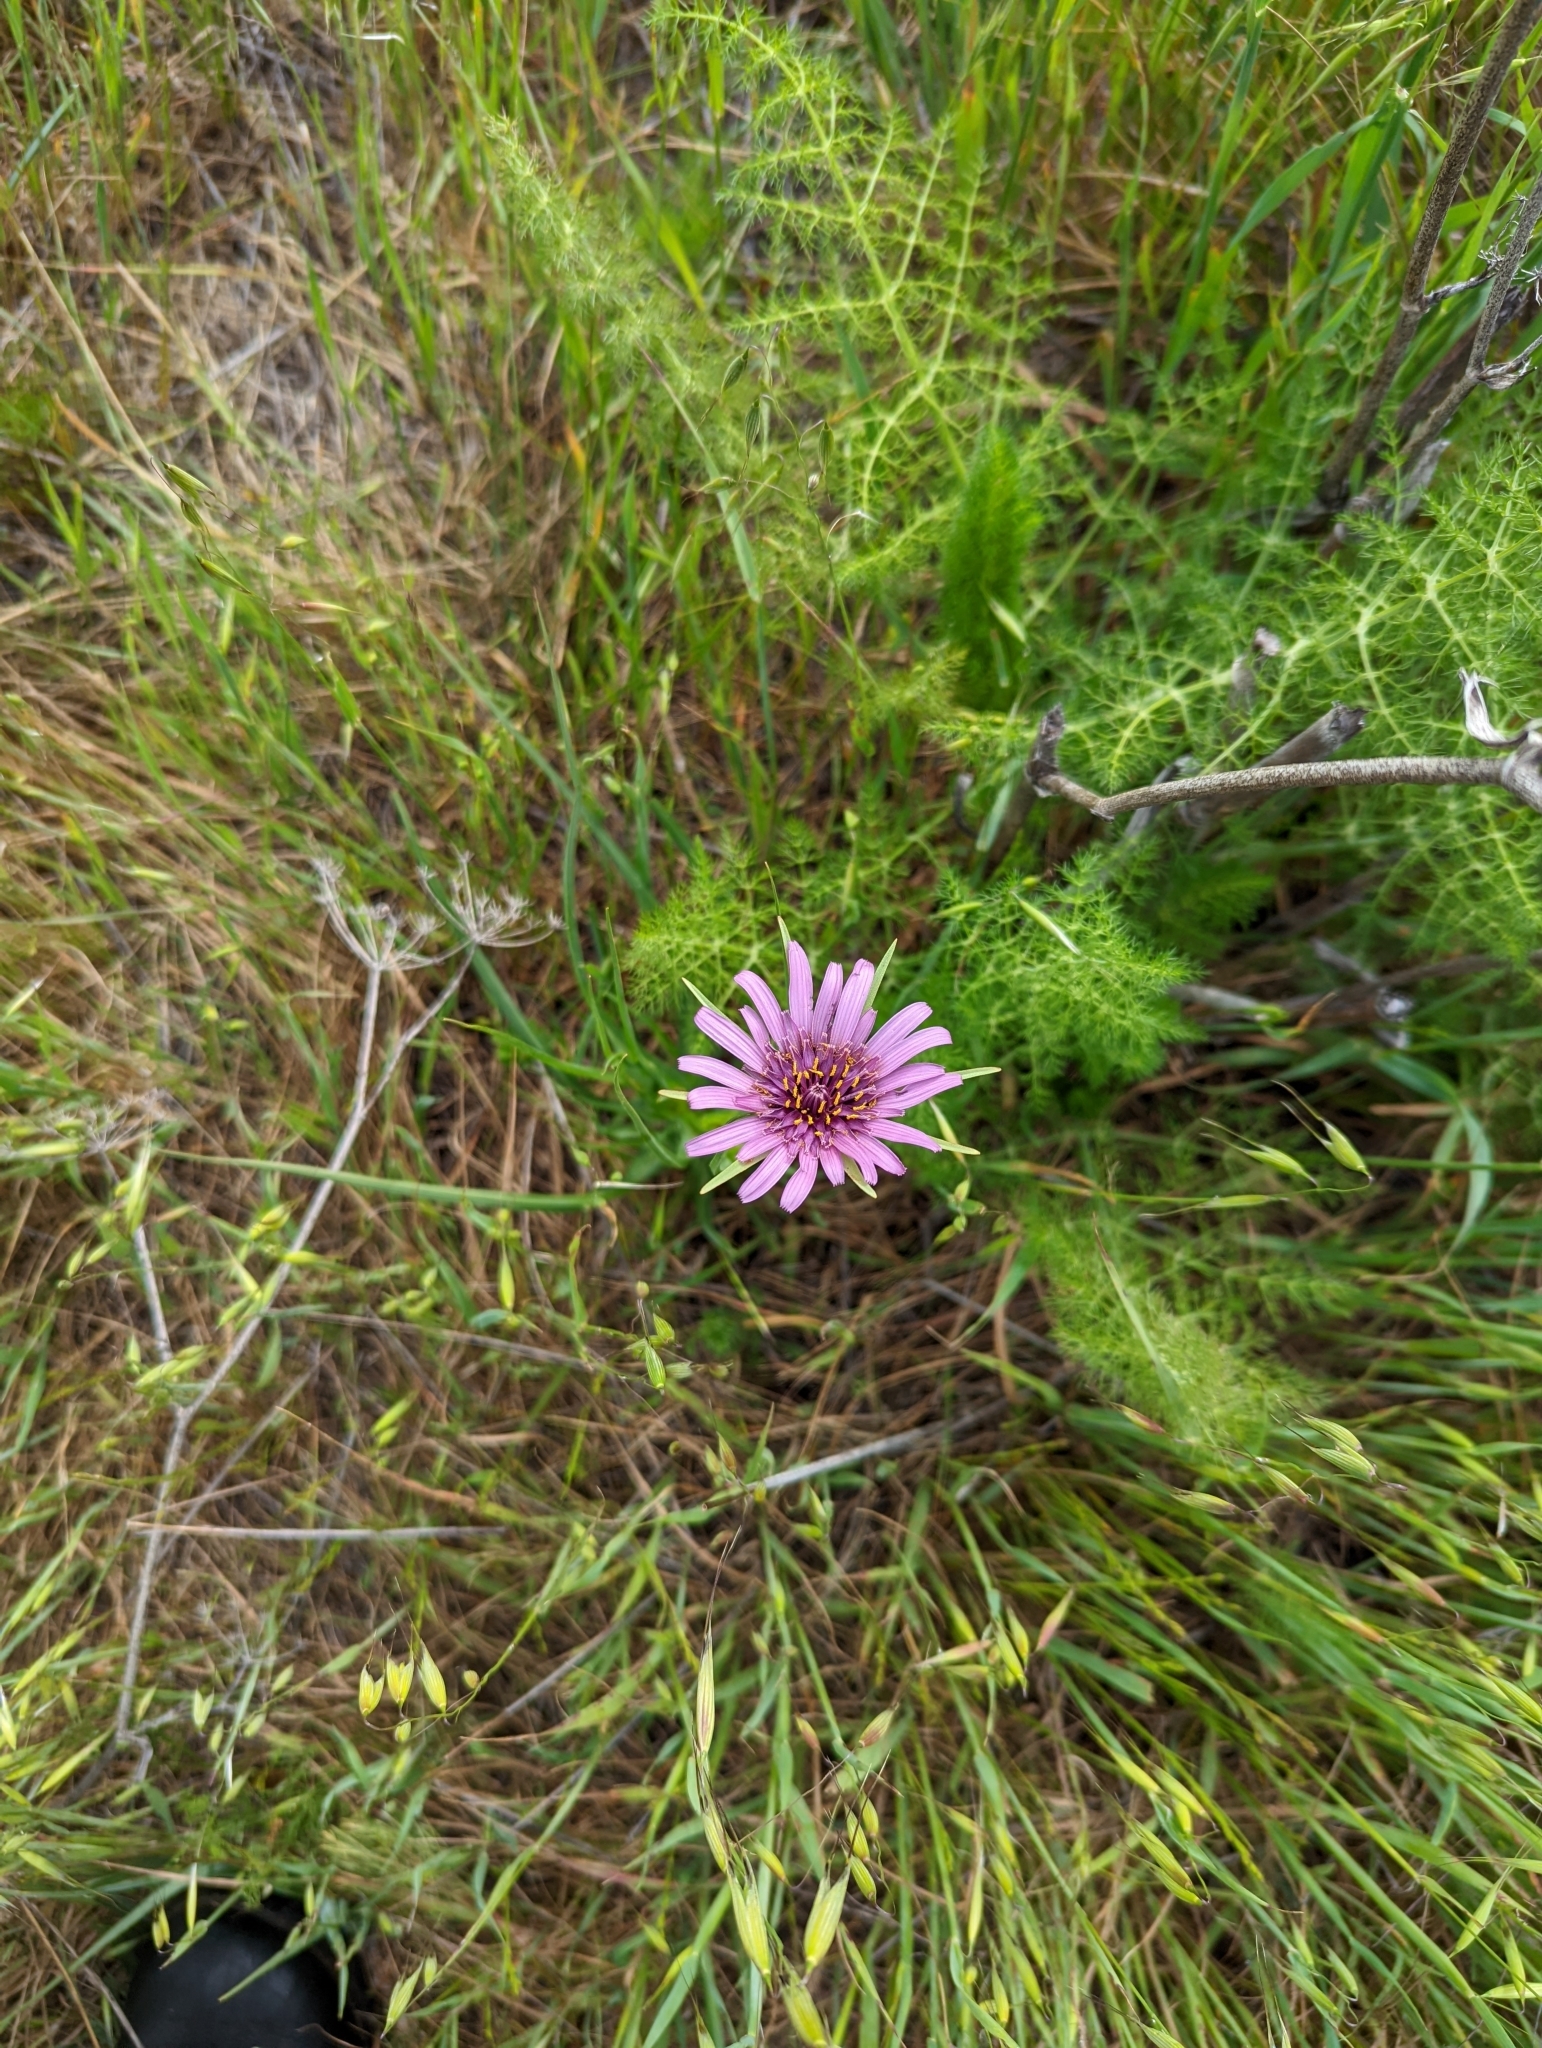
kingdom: Plantae
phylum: Tracheophyta
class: Magnoliopsida
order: Asterales
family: Asteraceae
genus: Tragopogon
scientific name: Tragopogon porrifolius
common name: Salsify
